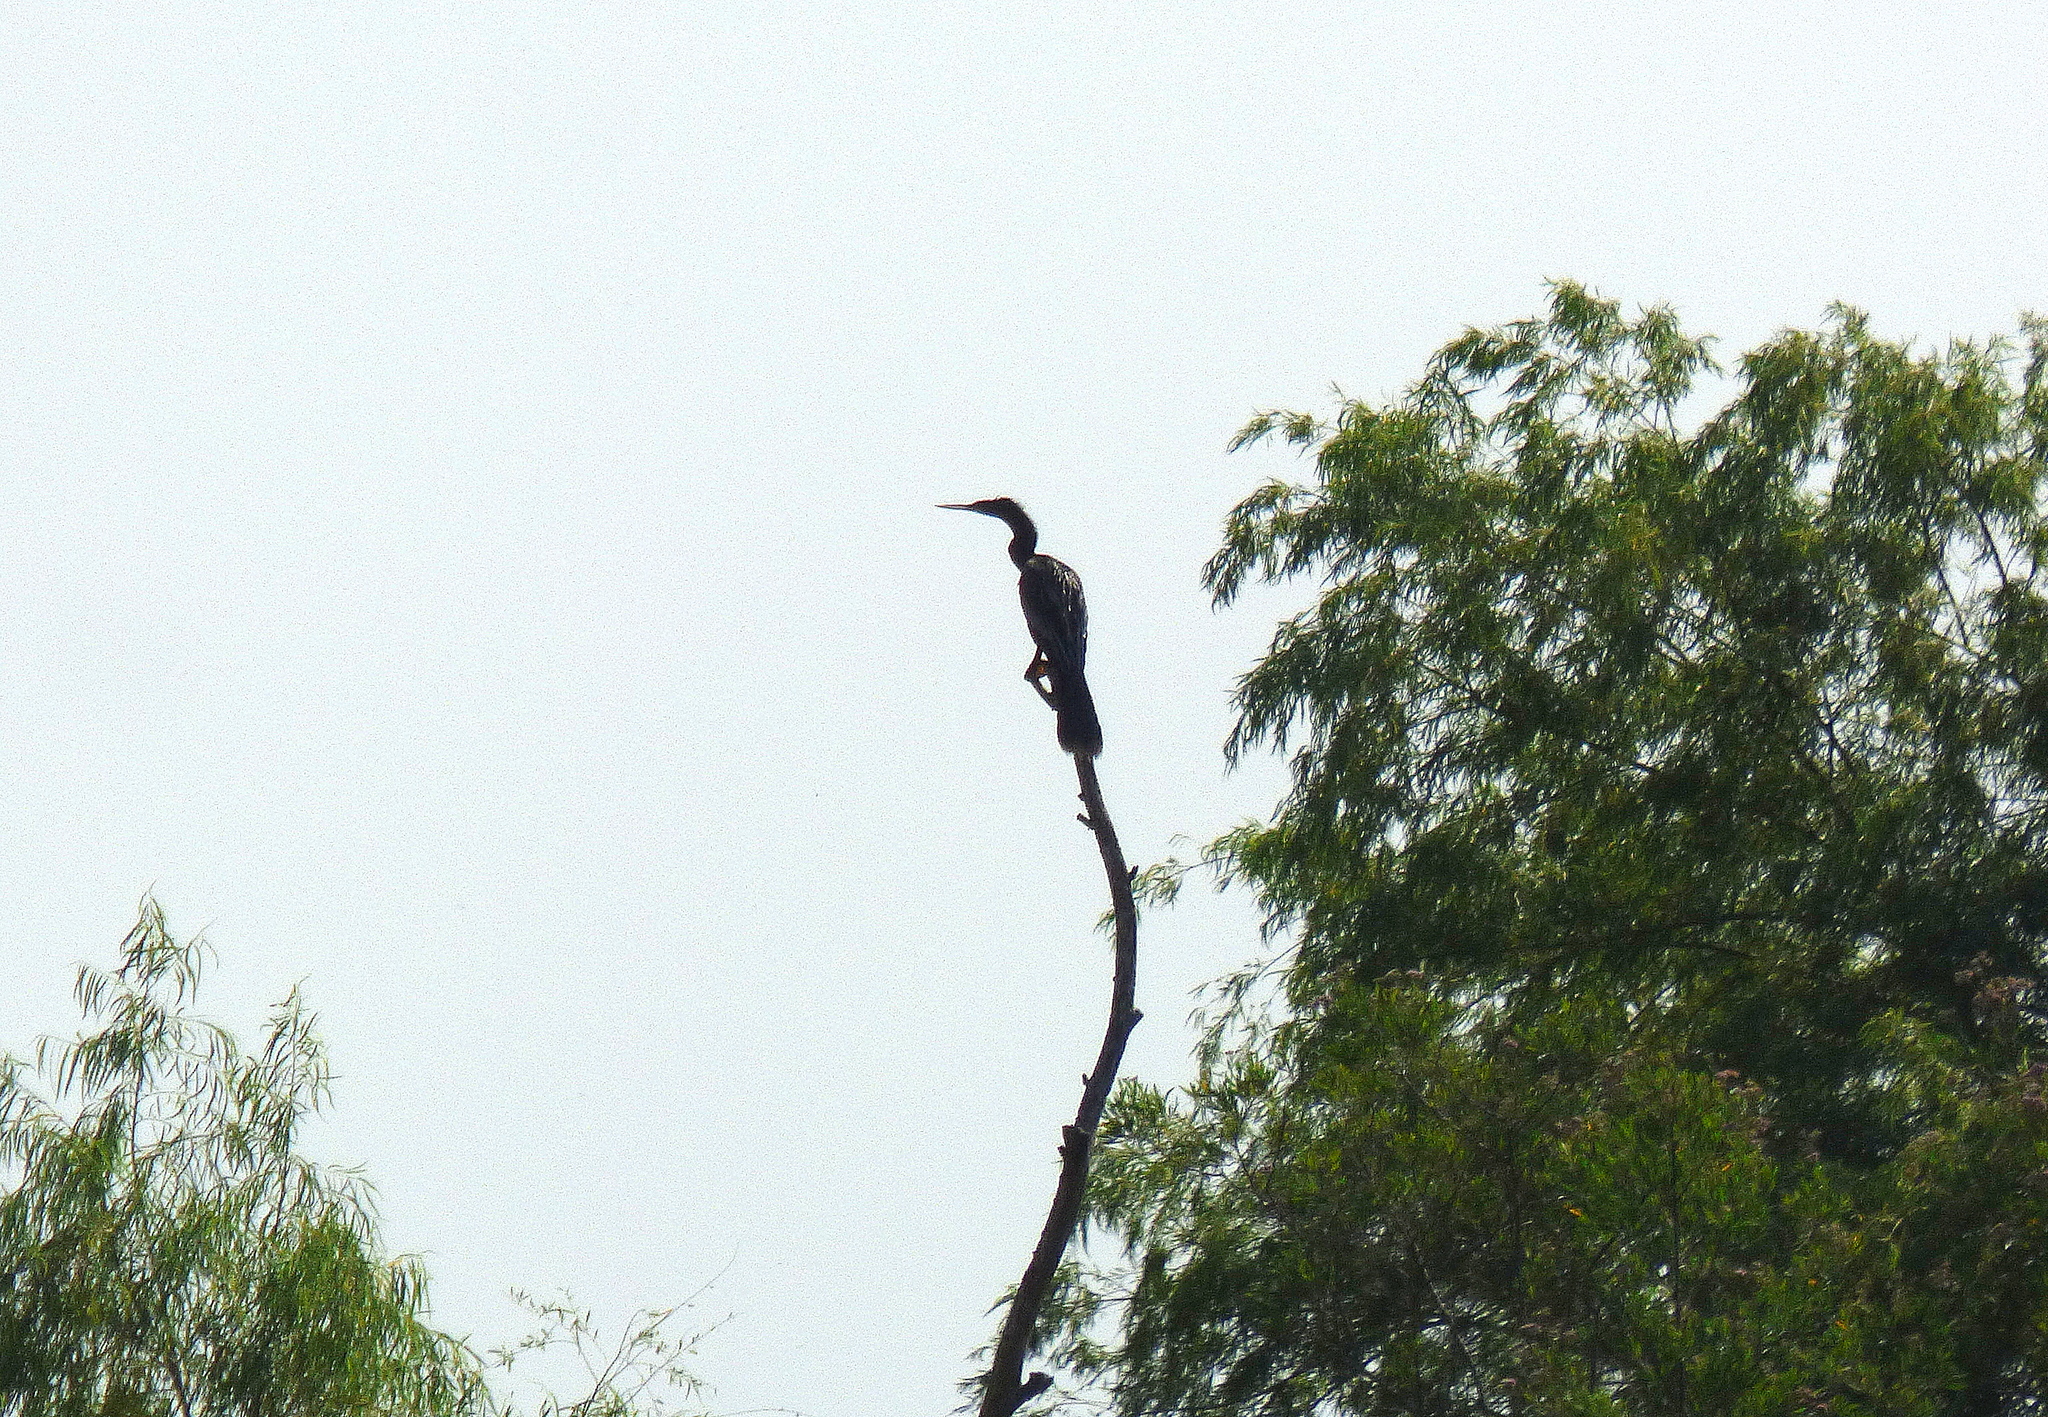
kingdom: Animalia
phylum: Chordata
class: Aves
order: Suliformes
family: Anhingidae
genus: Anhinga
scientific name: Anhinga anhinga
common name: Anhinga
